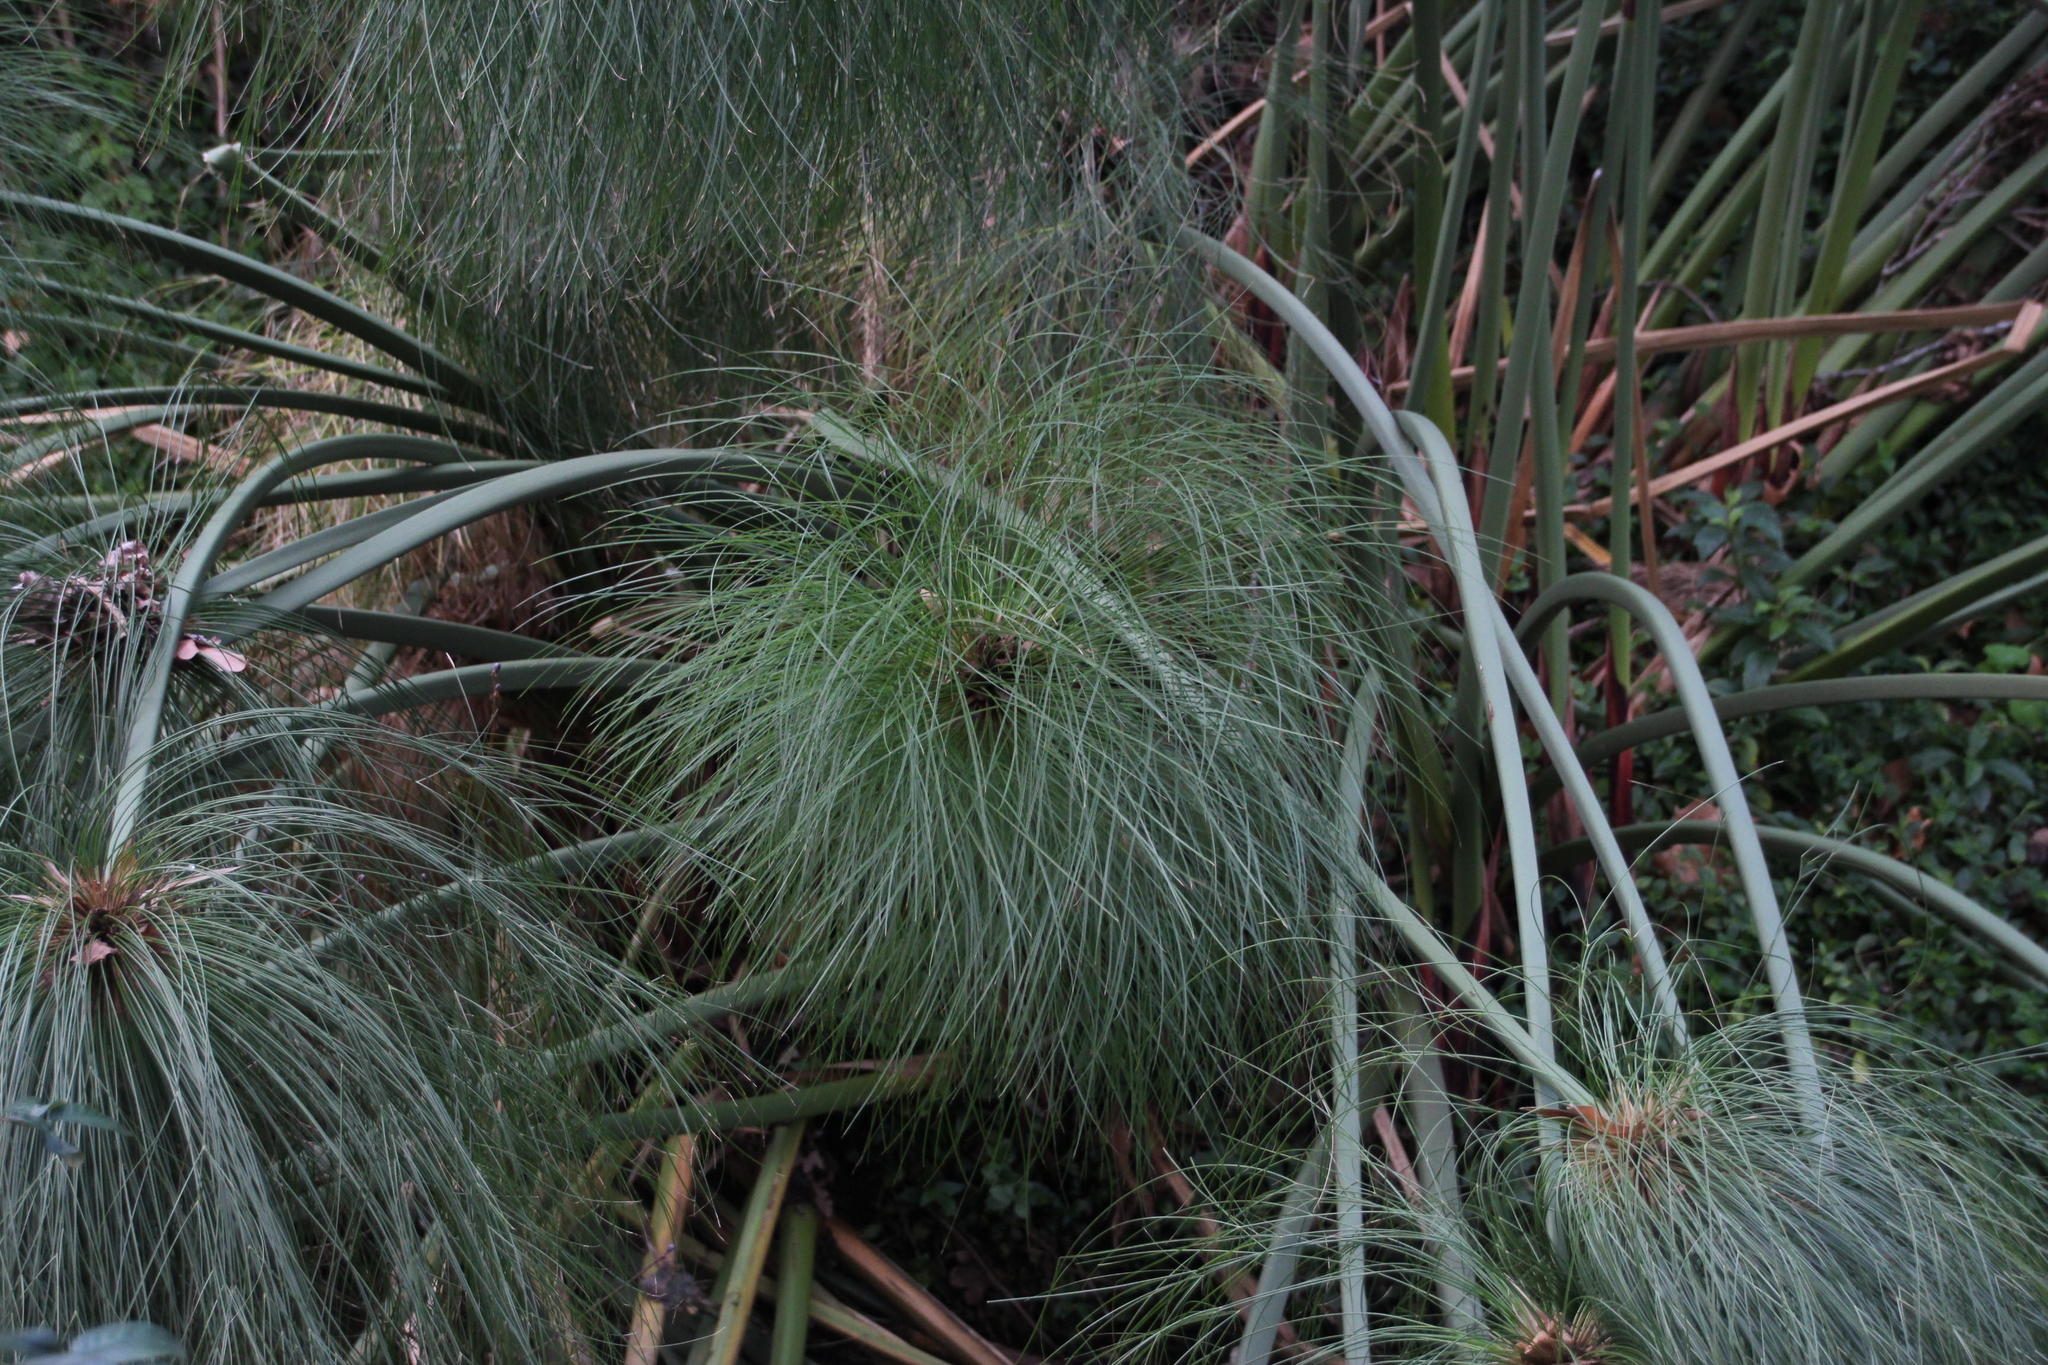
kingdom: Plantae
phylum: Tracheophyta
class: Liliopsida
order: Poales
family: Cyperaceae
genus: Cyperus
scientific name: Cyperus papyrus
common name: Papyrus
